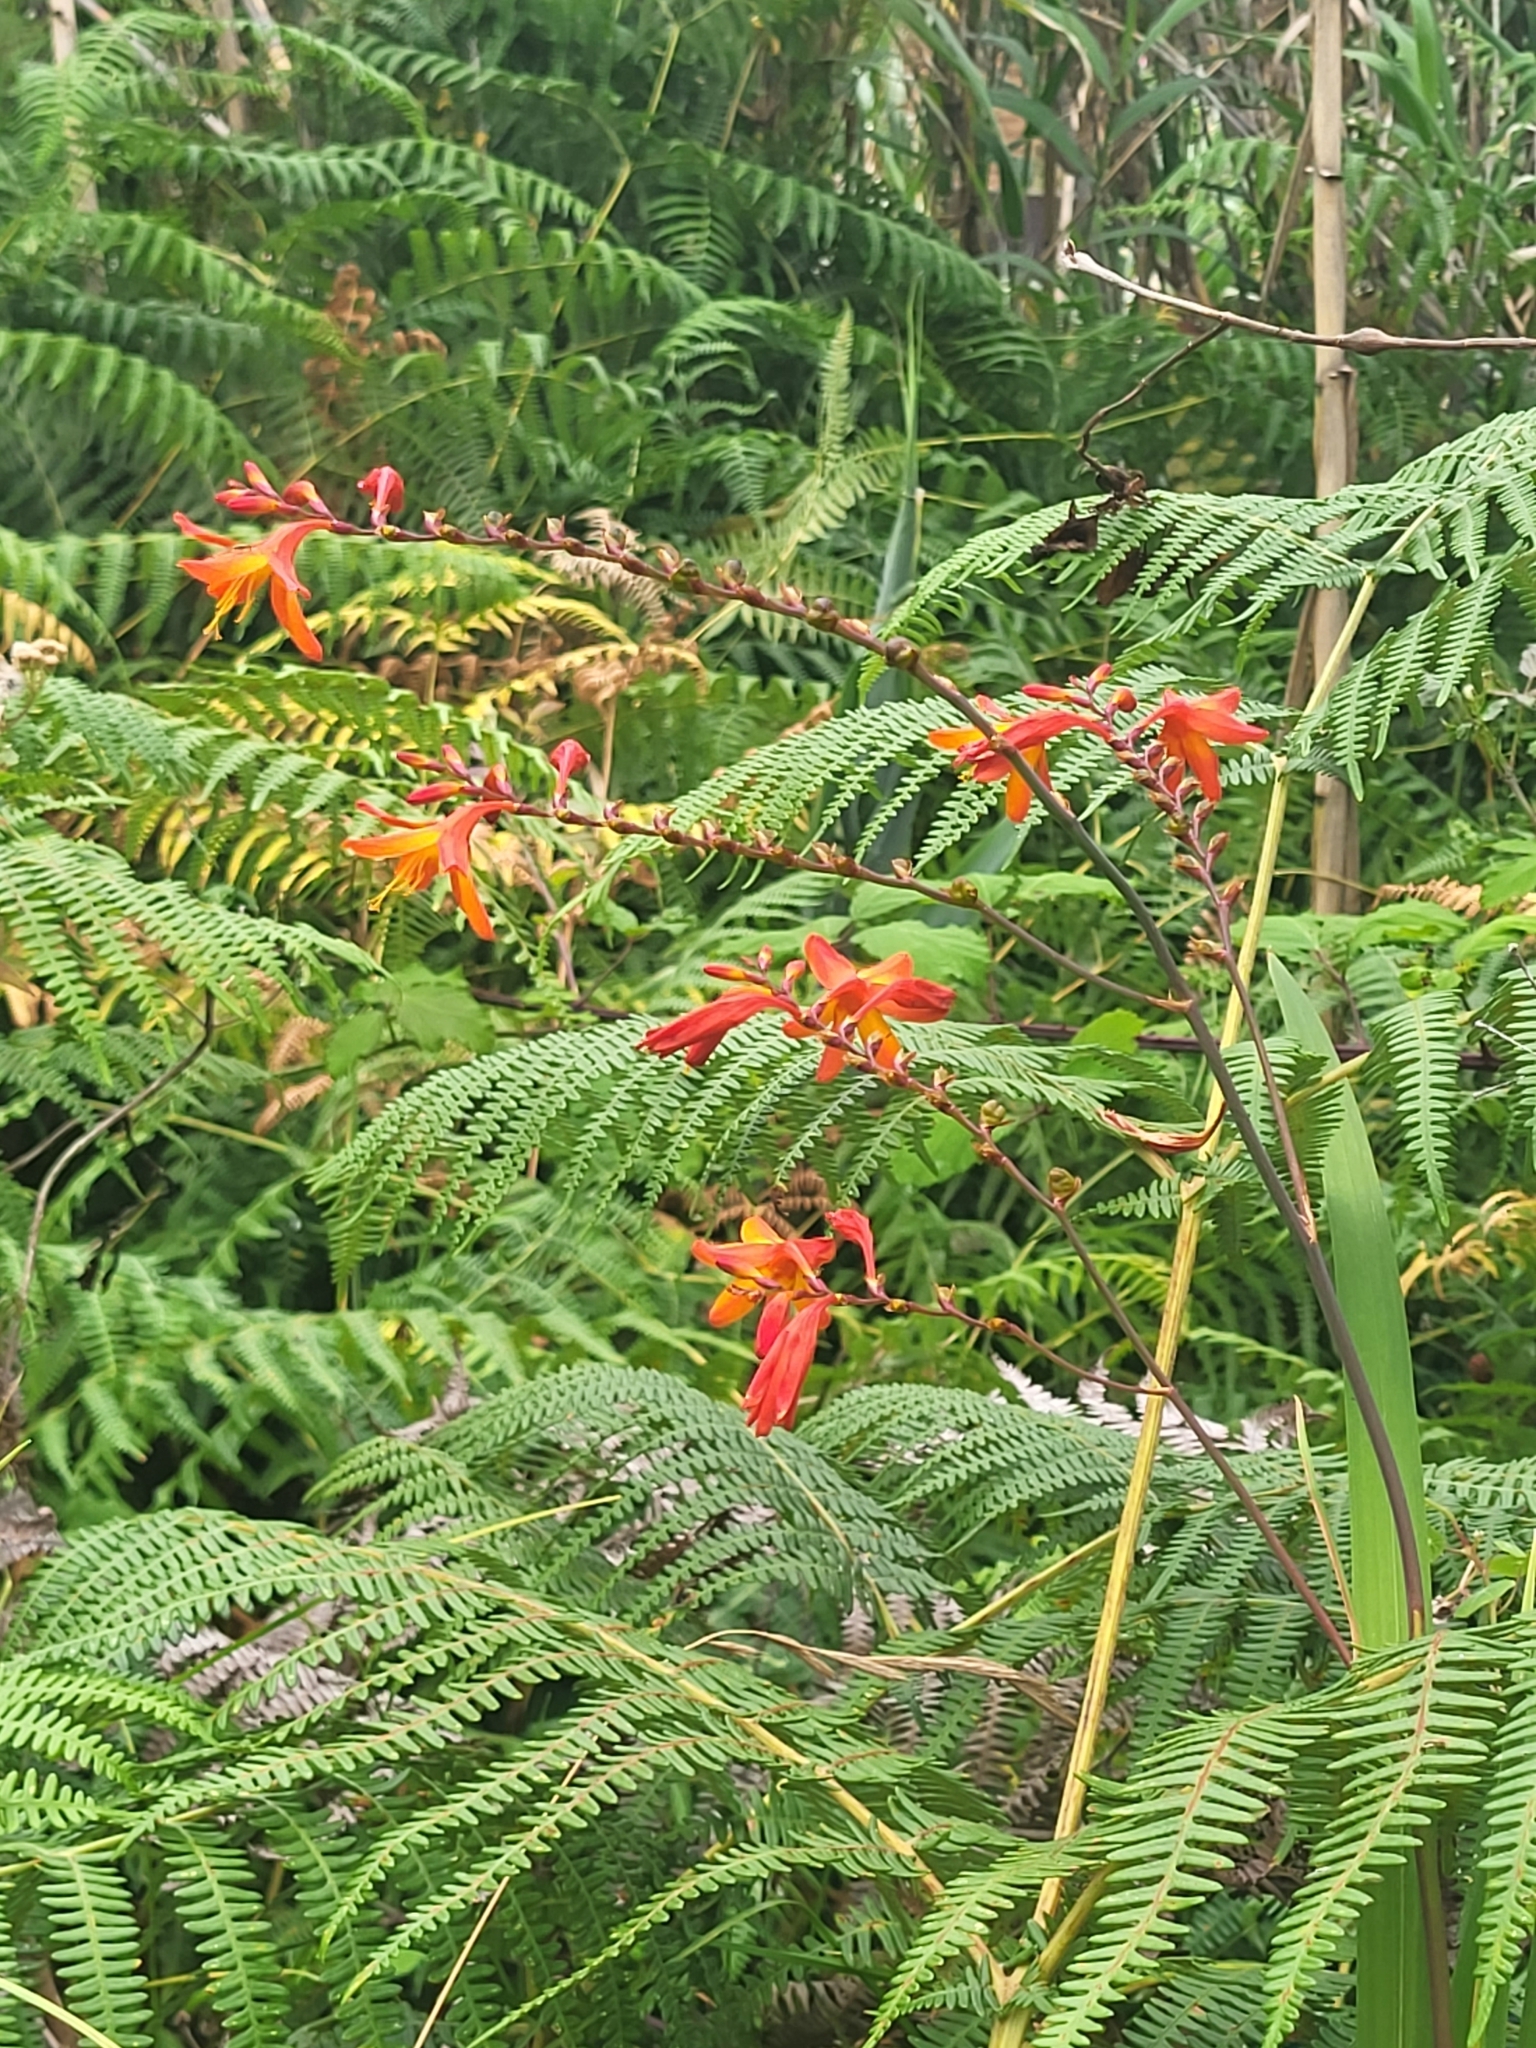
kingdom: Plantae
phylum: Tracheophyta
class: Liliopsida
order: Asparagales
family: Iridaceae
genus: Crocosmia
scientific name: Crocosmia crocosmiiflora
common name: Montbretia
